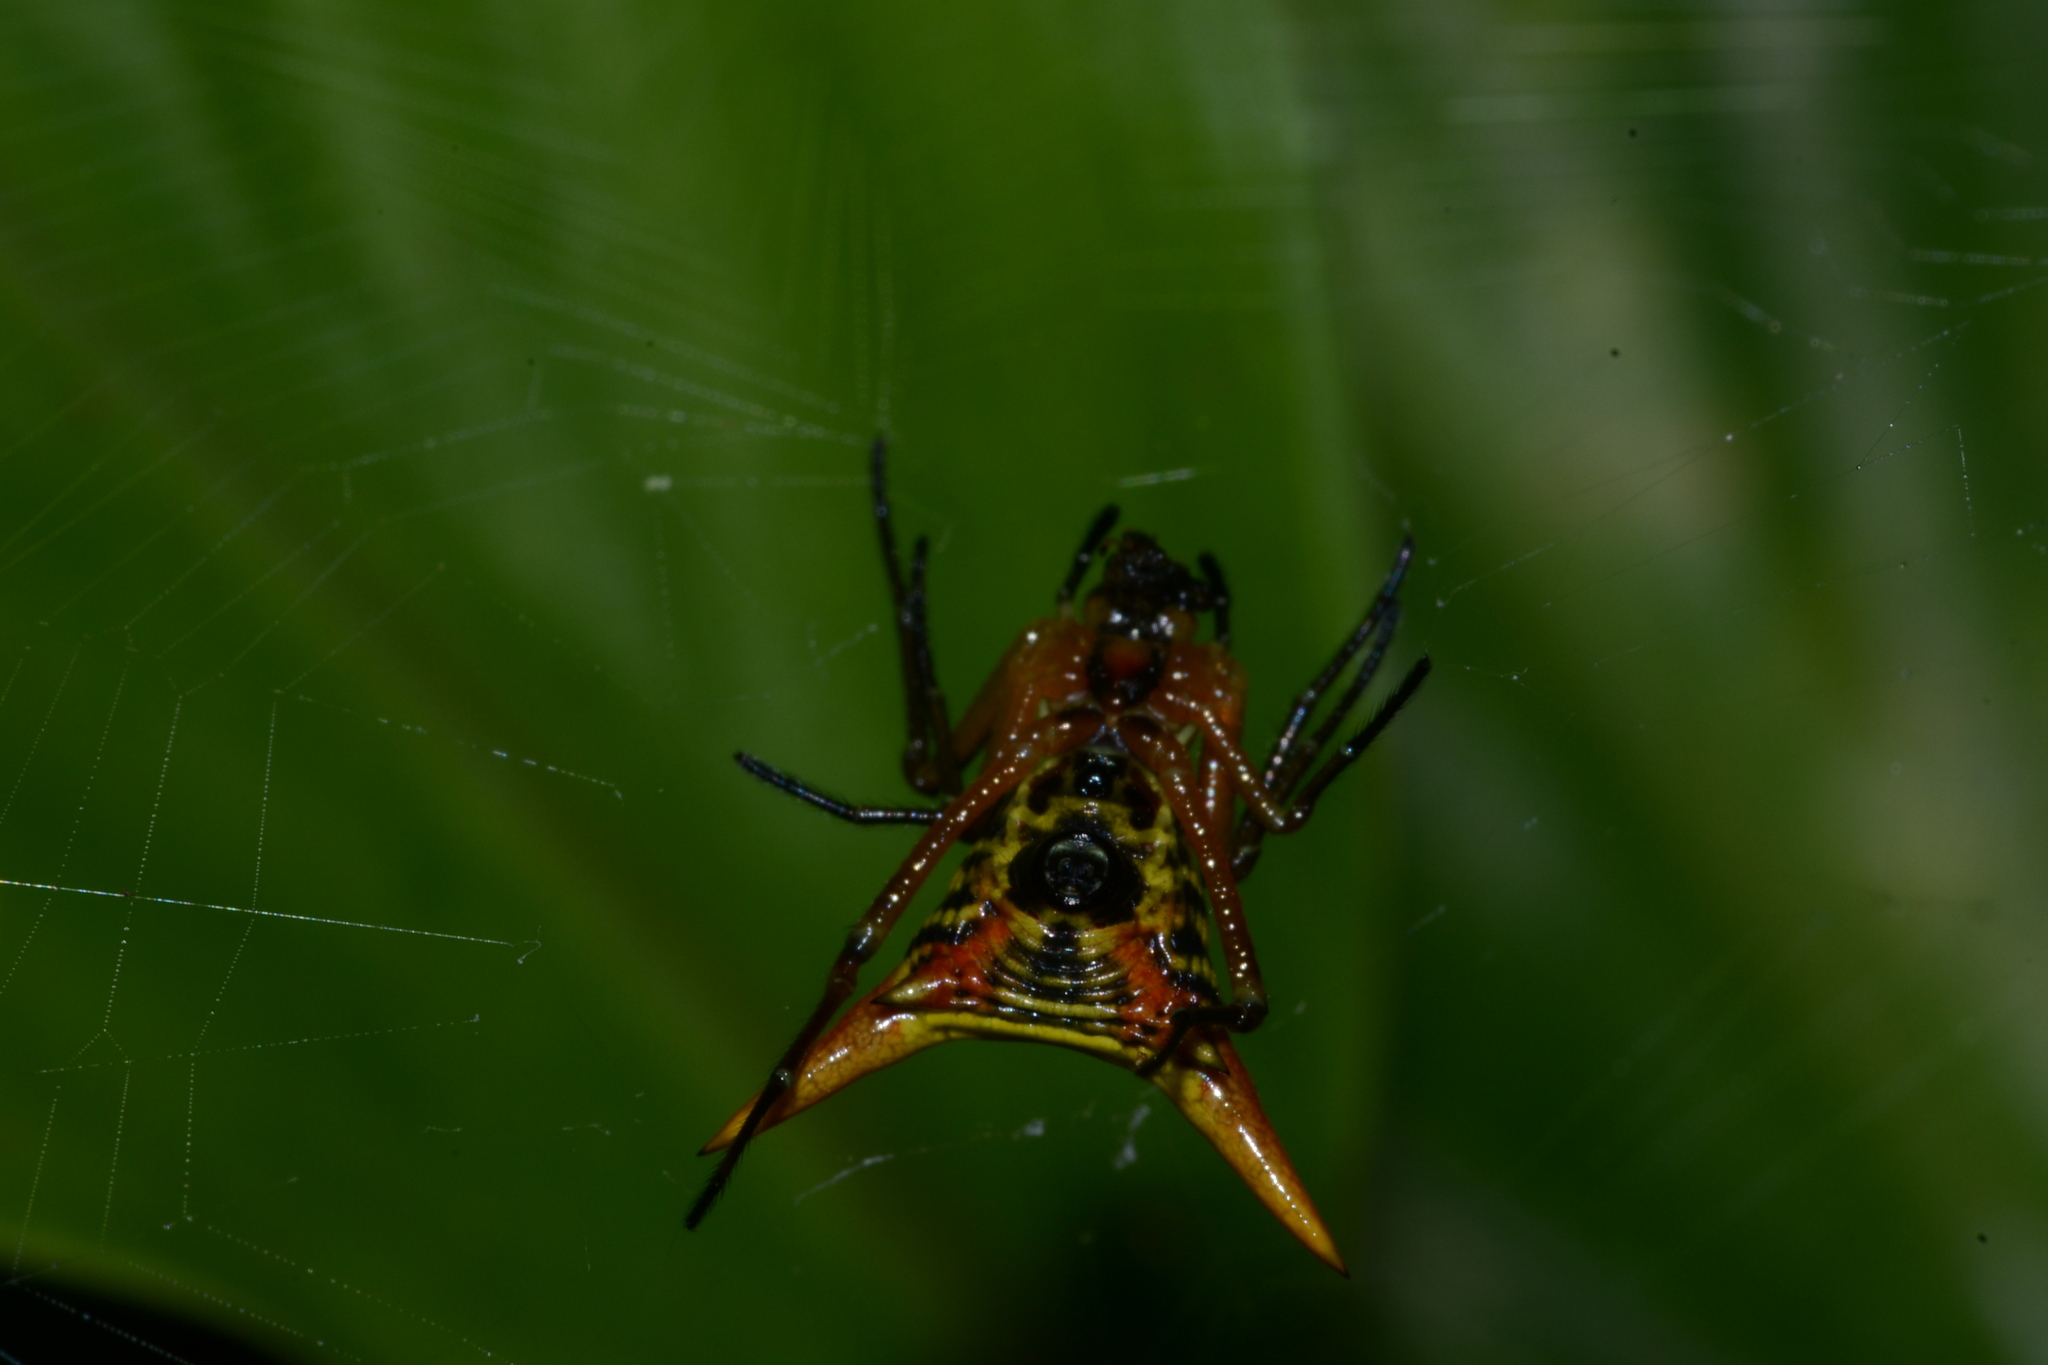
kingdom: Animalia
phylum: Arthropoda
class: Arachnida
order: Araneae
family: Araneidae
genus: Micrathena
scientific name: Micrathena bicolor
